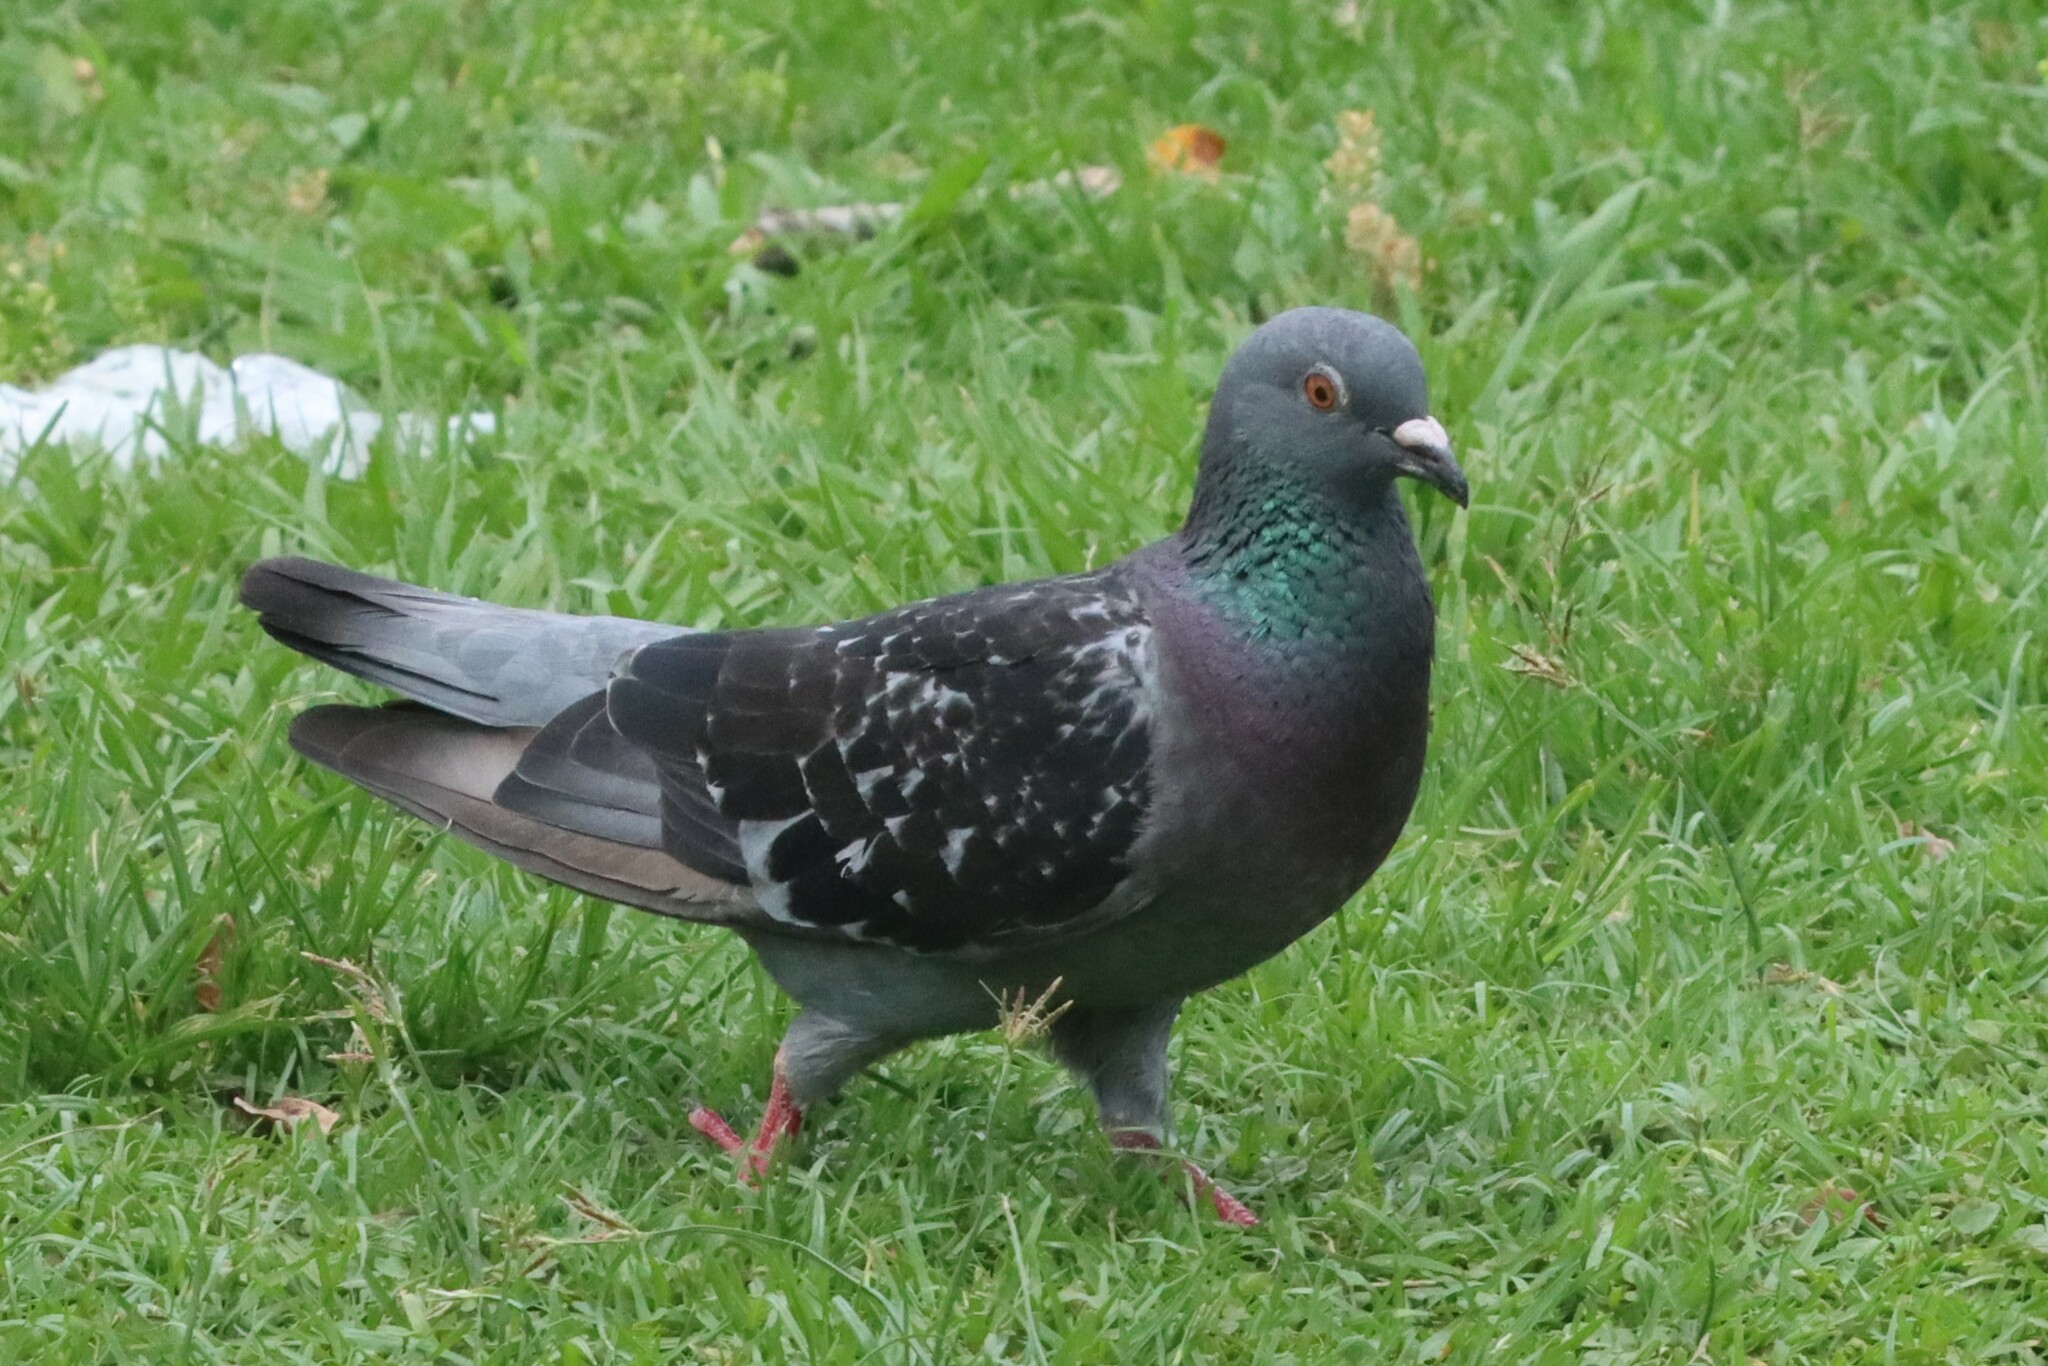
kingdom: Animalia
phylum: Chordata
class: Aves
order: Columbiformes
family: Columbidae
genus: Columba
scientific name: Columba livia
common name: Rock pigeon
